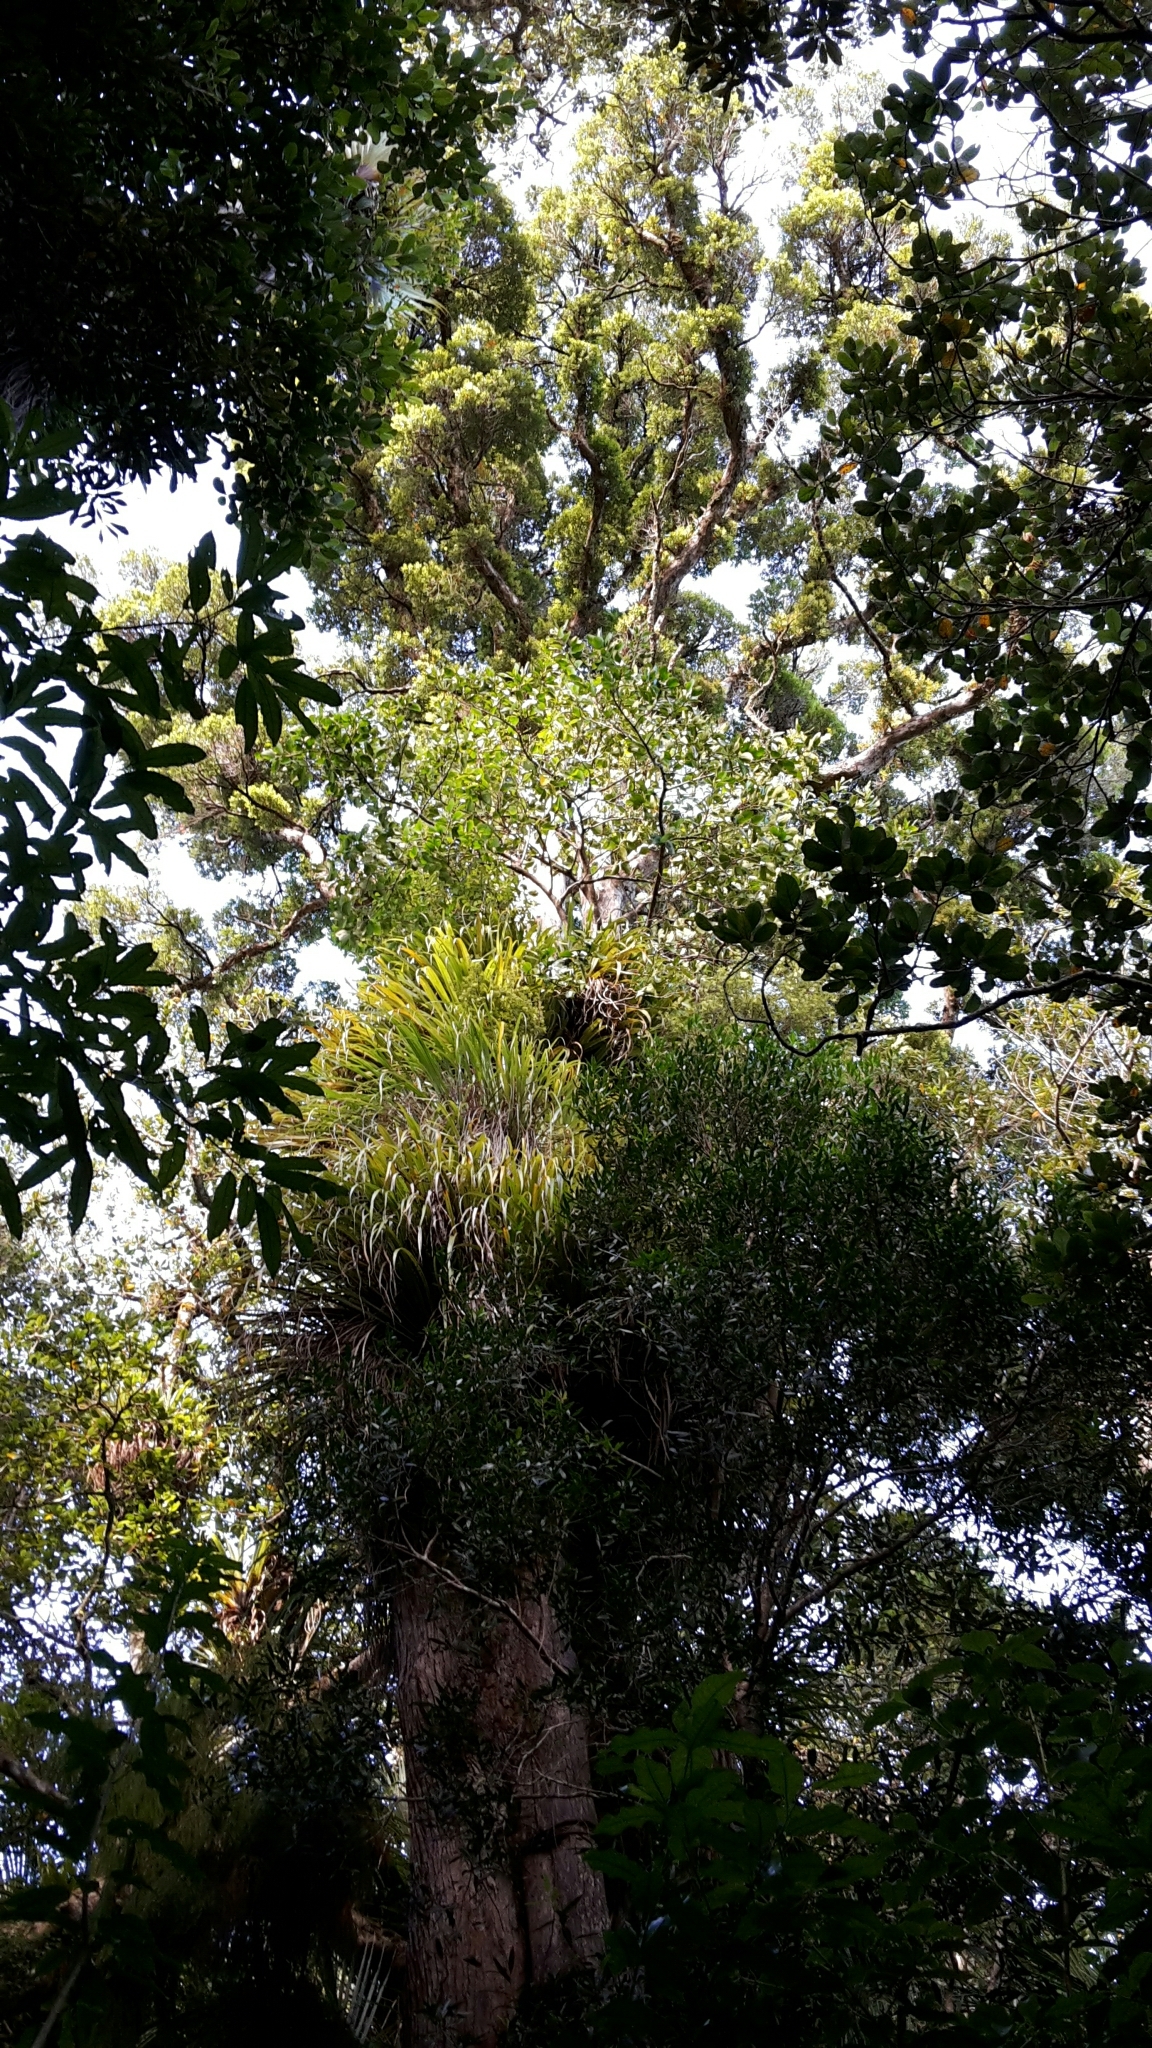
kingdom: Plantae
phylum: Tracheophyta
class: Magnoliopsida
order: Myrtales
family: Myrtaceae
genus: Metrosideros
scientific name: Metrosideros robusta
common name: Northern rata
